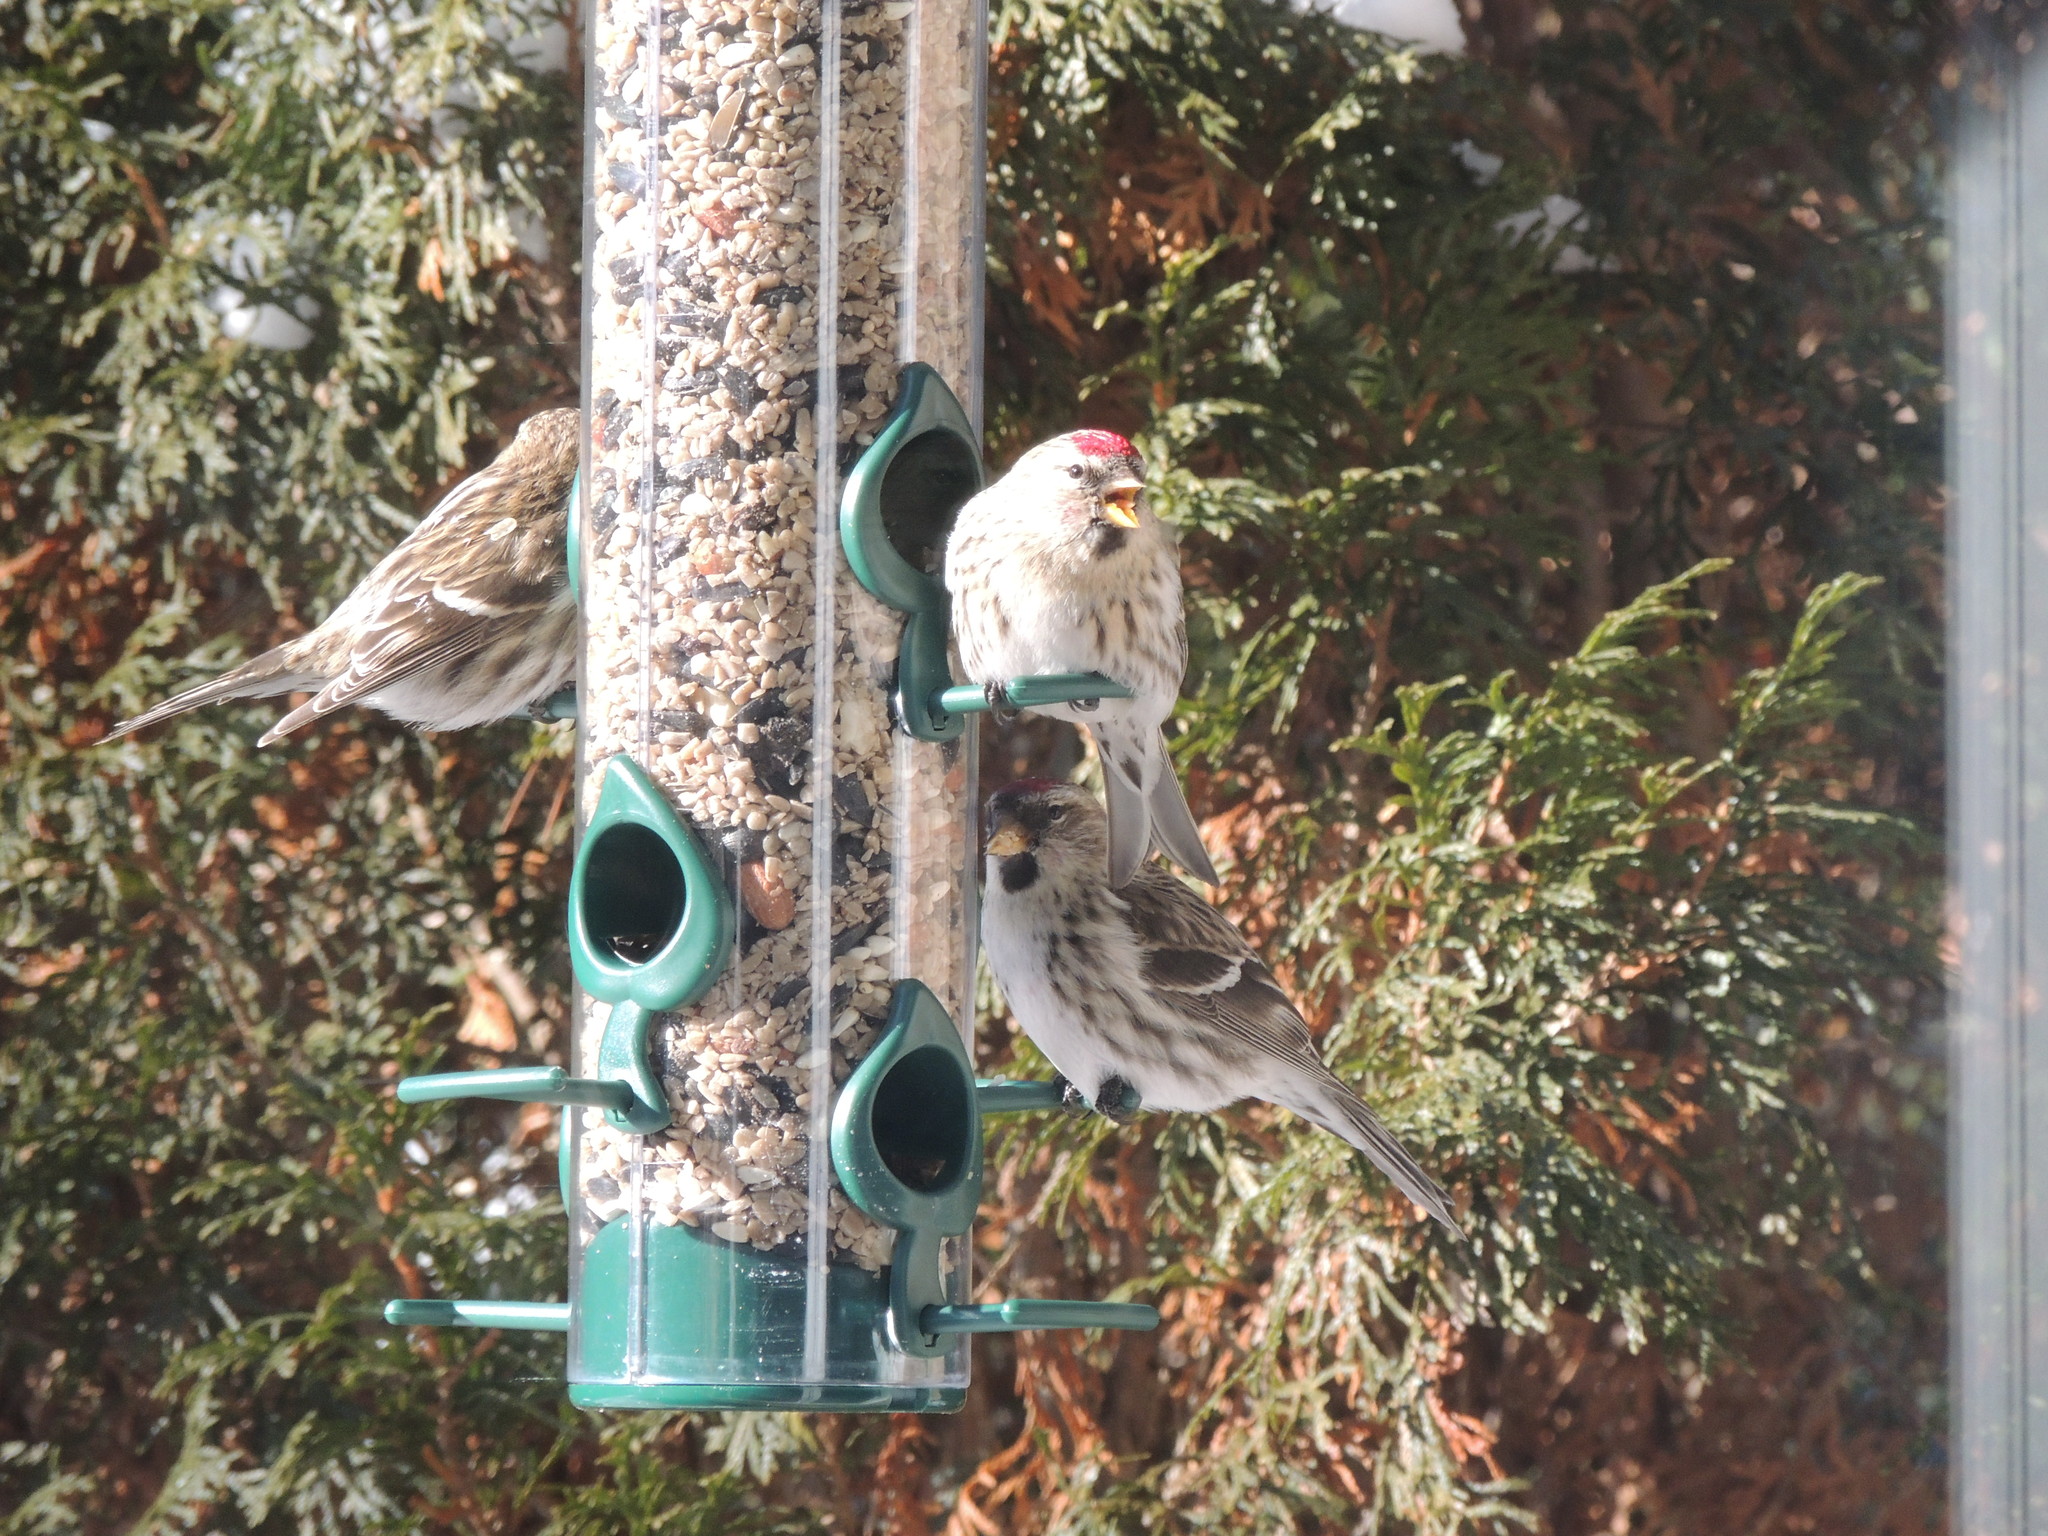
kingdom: Animalia
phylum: Chordata
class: Aves
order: Passeriformes
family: Fringillidae
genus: Acanthis
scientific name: Acanthis flammea
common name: Common redpoll
